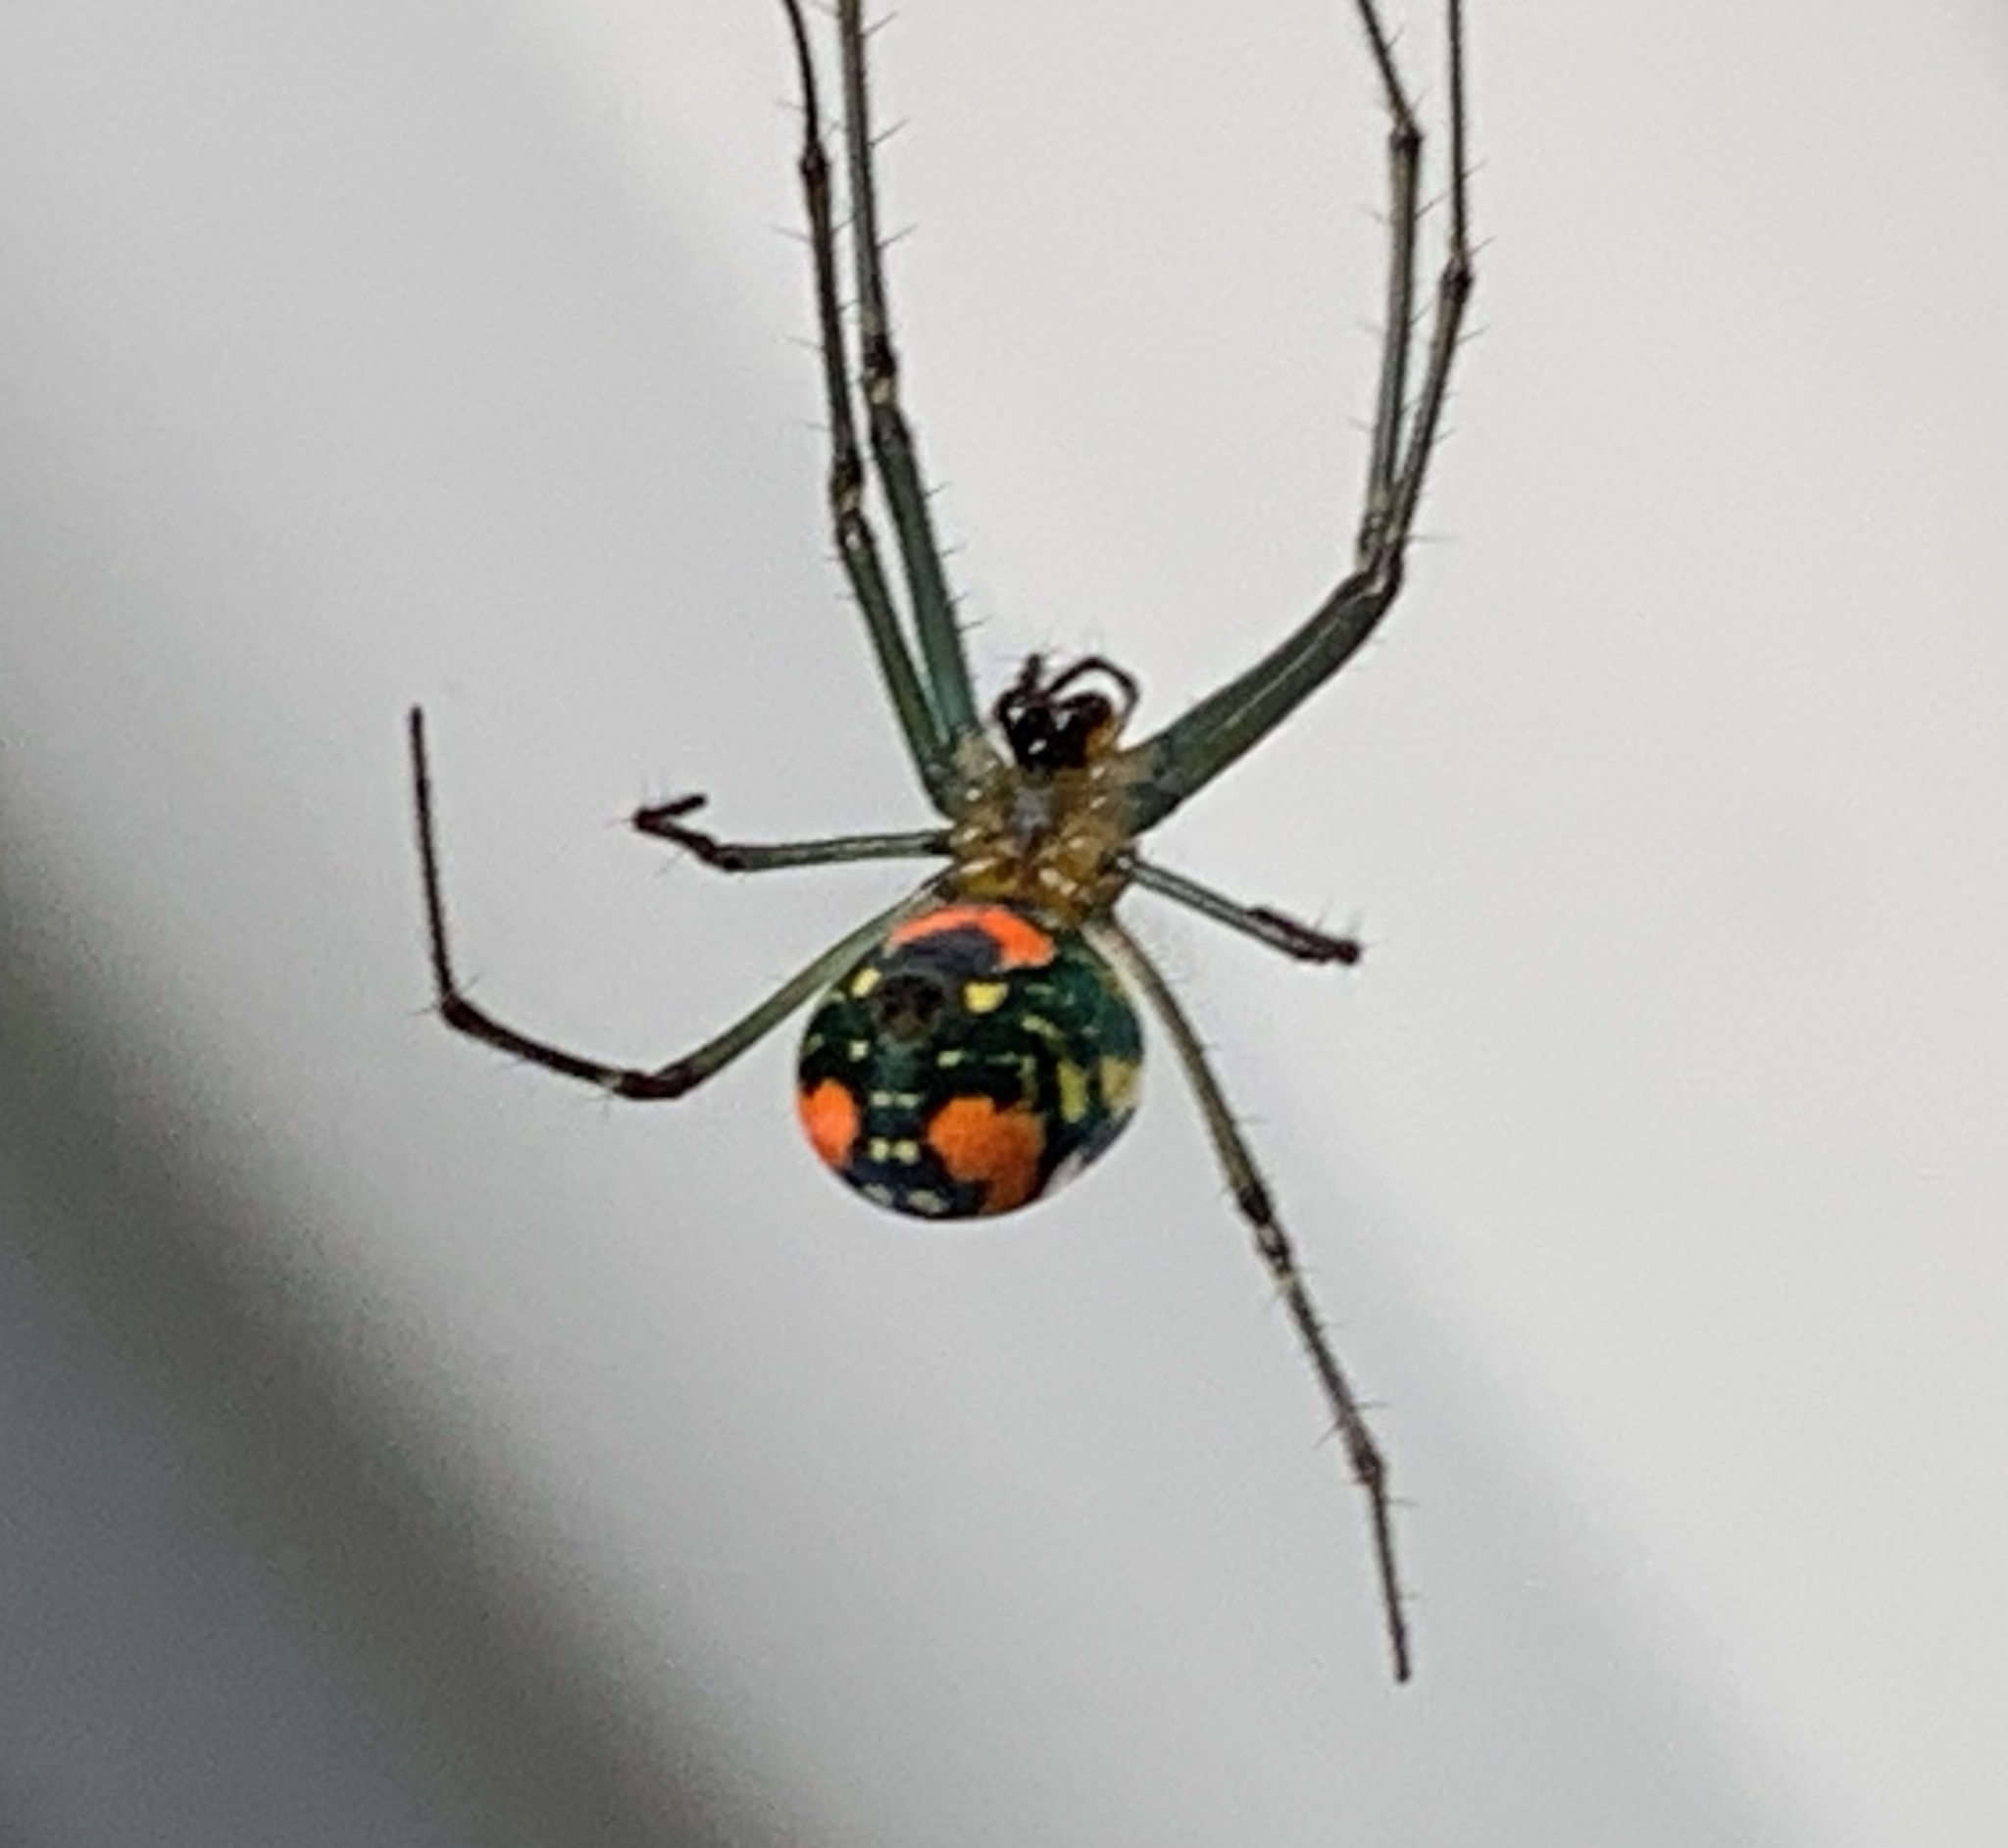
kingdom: Animalia
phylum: Arthropoda
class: Arachnida
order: Araneae
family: Tetragnathidae
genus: Leucauge
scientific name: Leucauge argyrobapta
